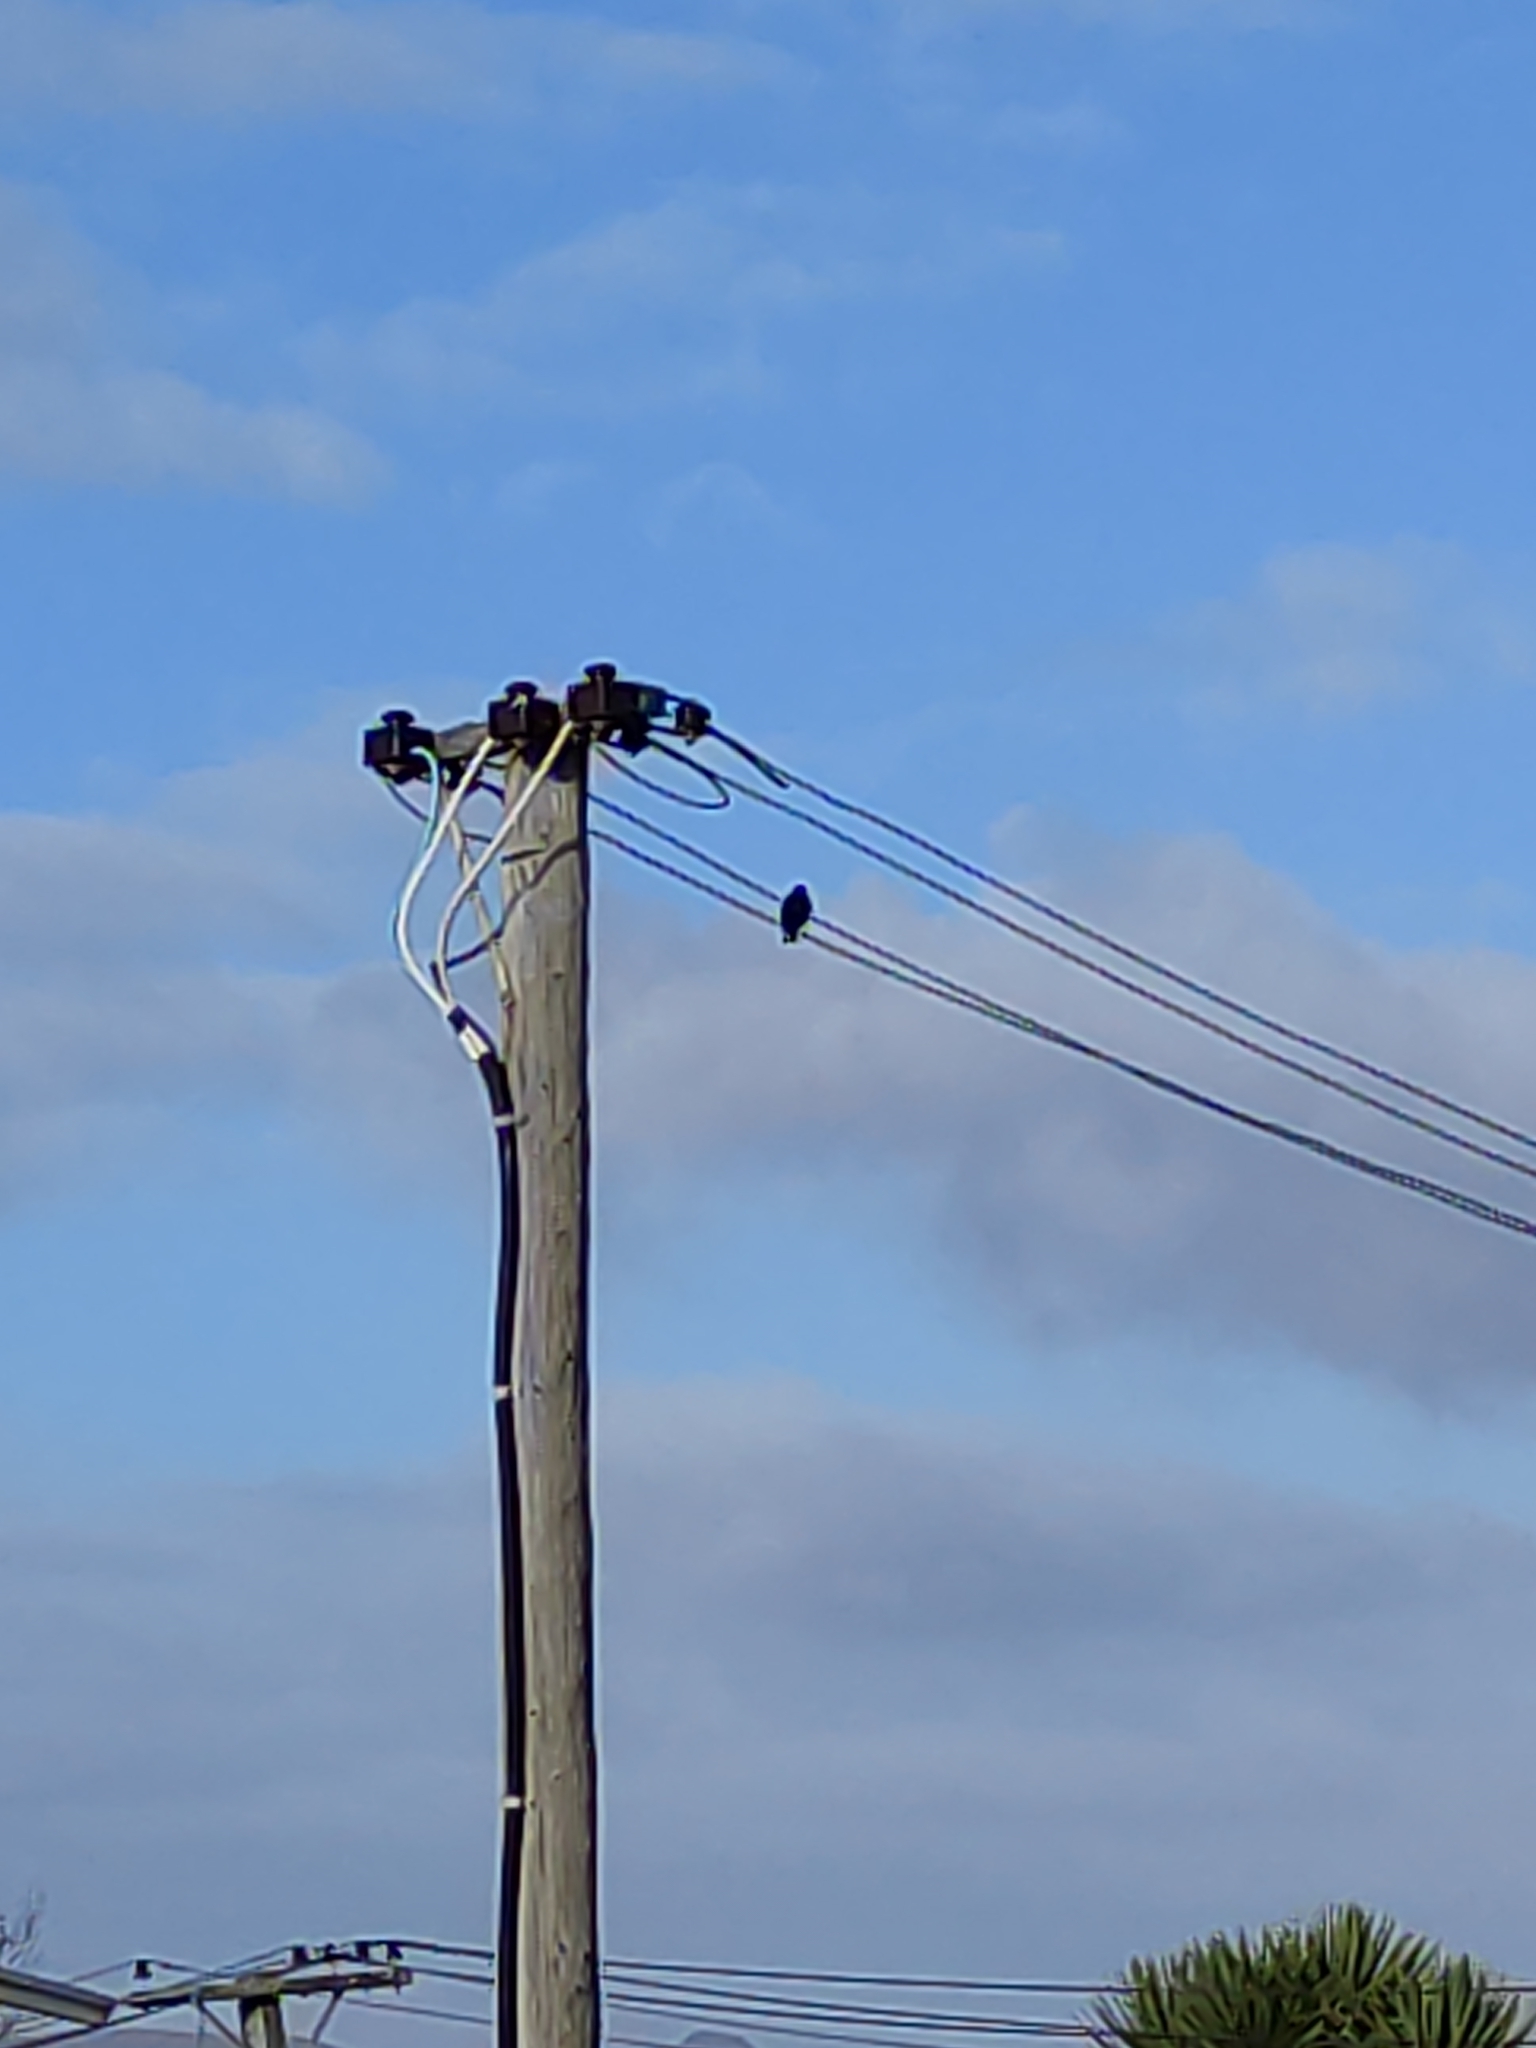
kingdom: Animalia
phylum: Chordata
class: Aves
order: Passeriformes
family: Sturnidae
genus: Sturnus
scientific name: Sturnus vulgaris
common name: Common starling
